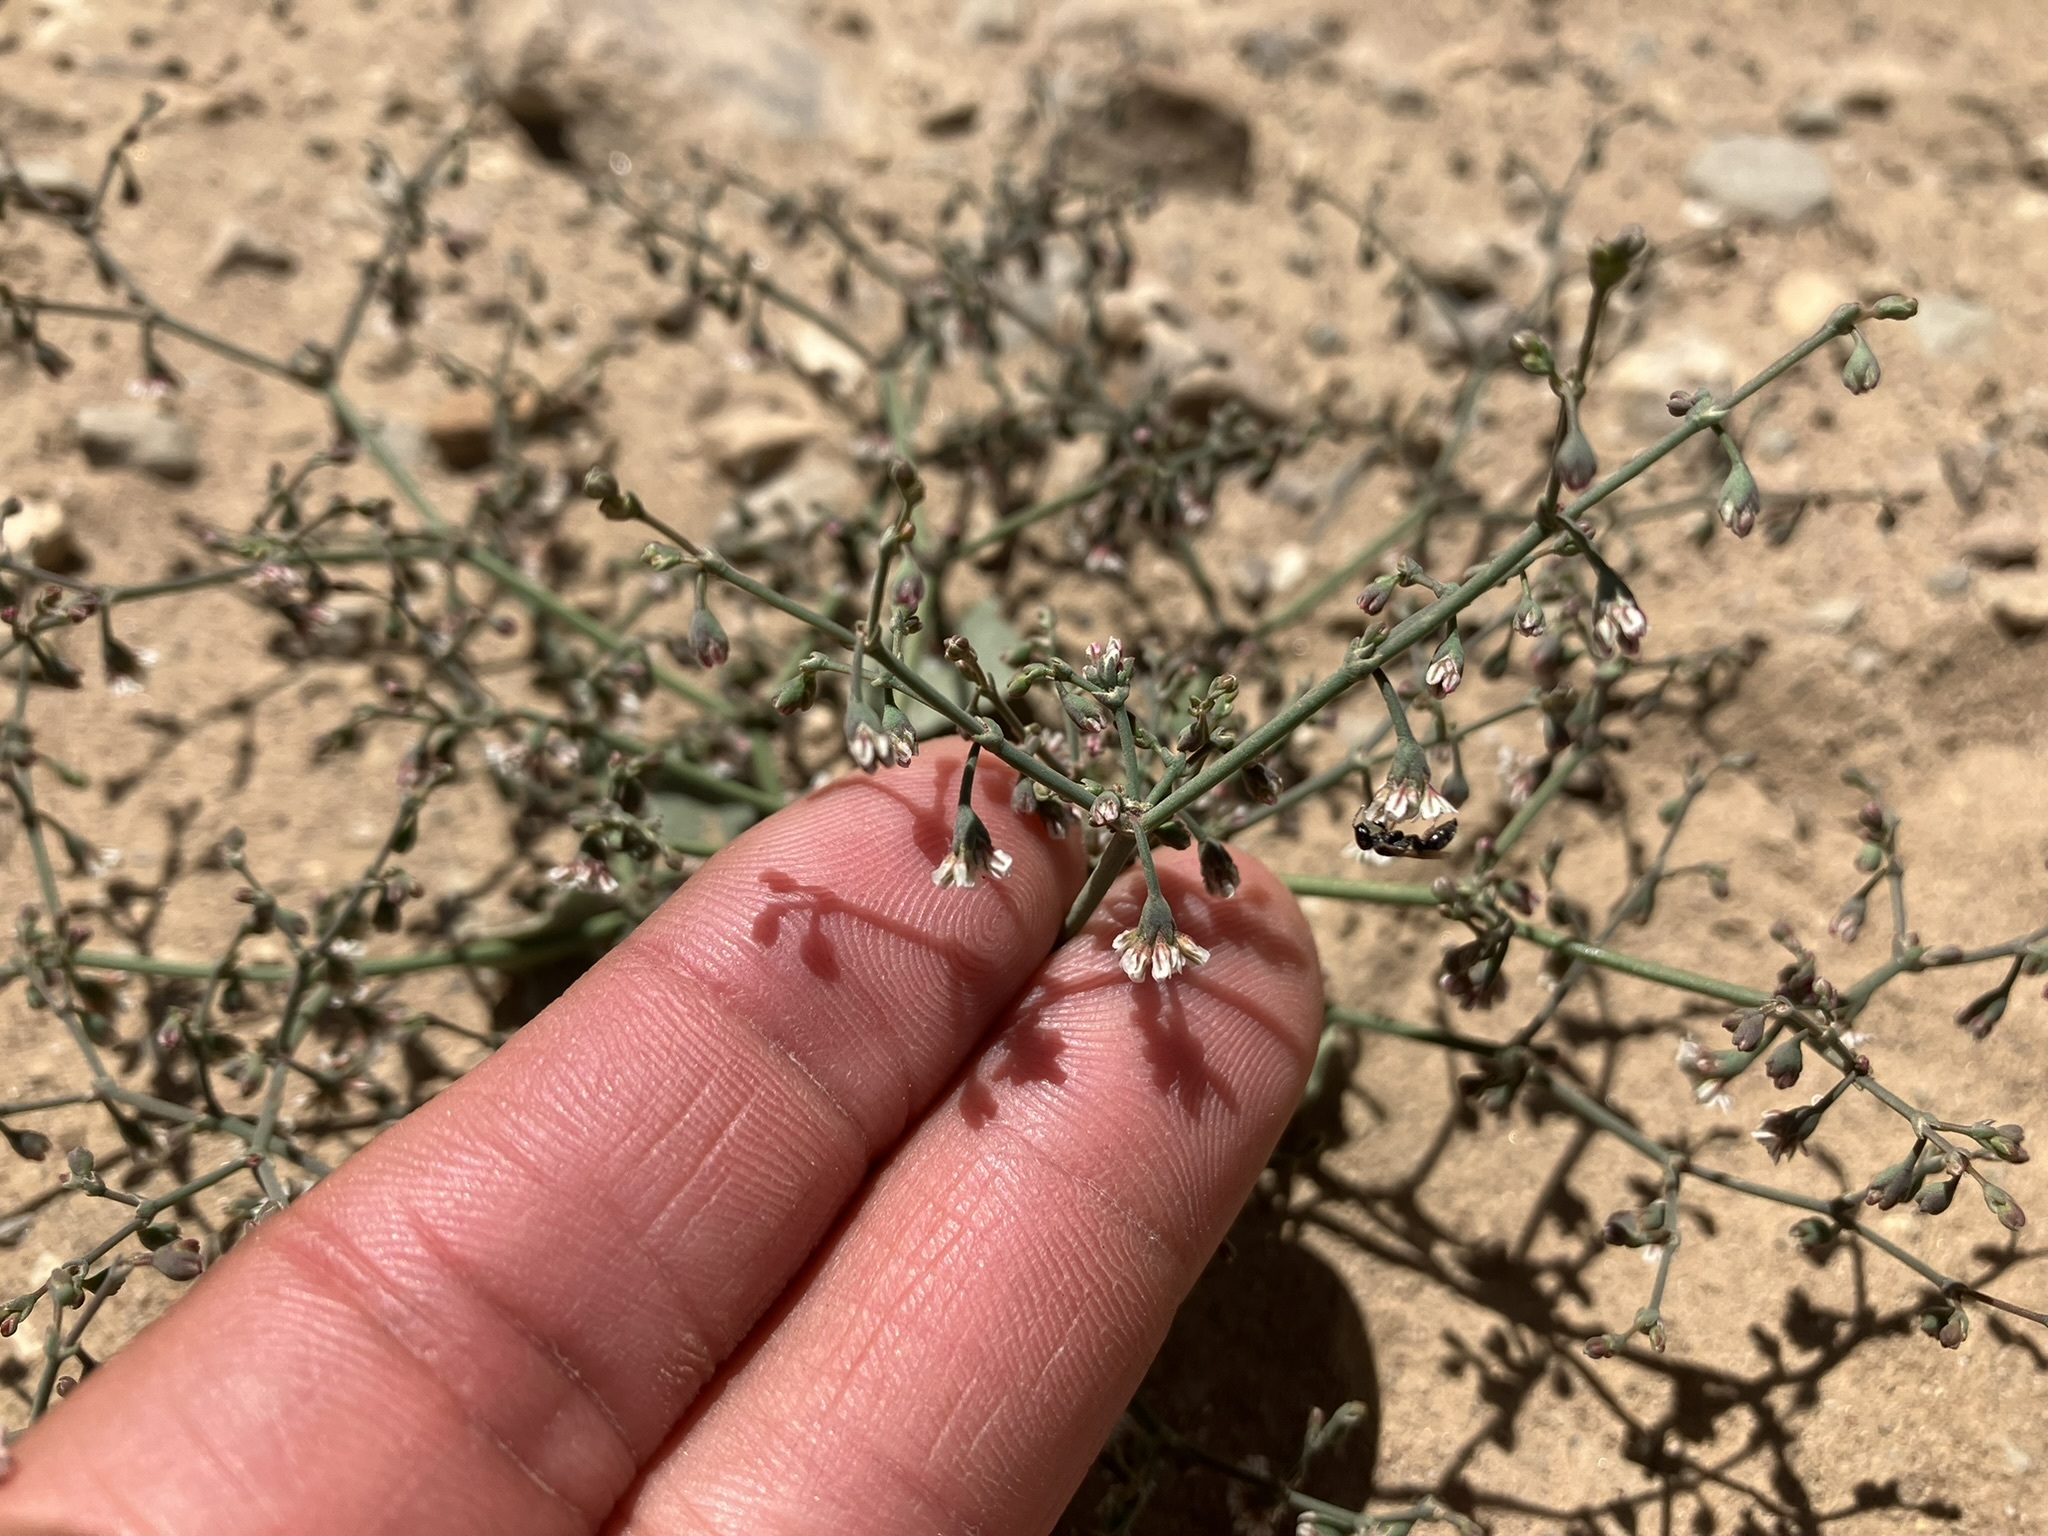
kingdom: Plantae
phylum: Tracheophyta
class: Magnoliopsida
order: Caryophyllales
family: Polygonaceae
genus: Eriogonum
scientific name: Eriogonum cernuum
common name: Nodding wild buckwheat
